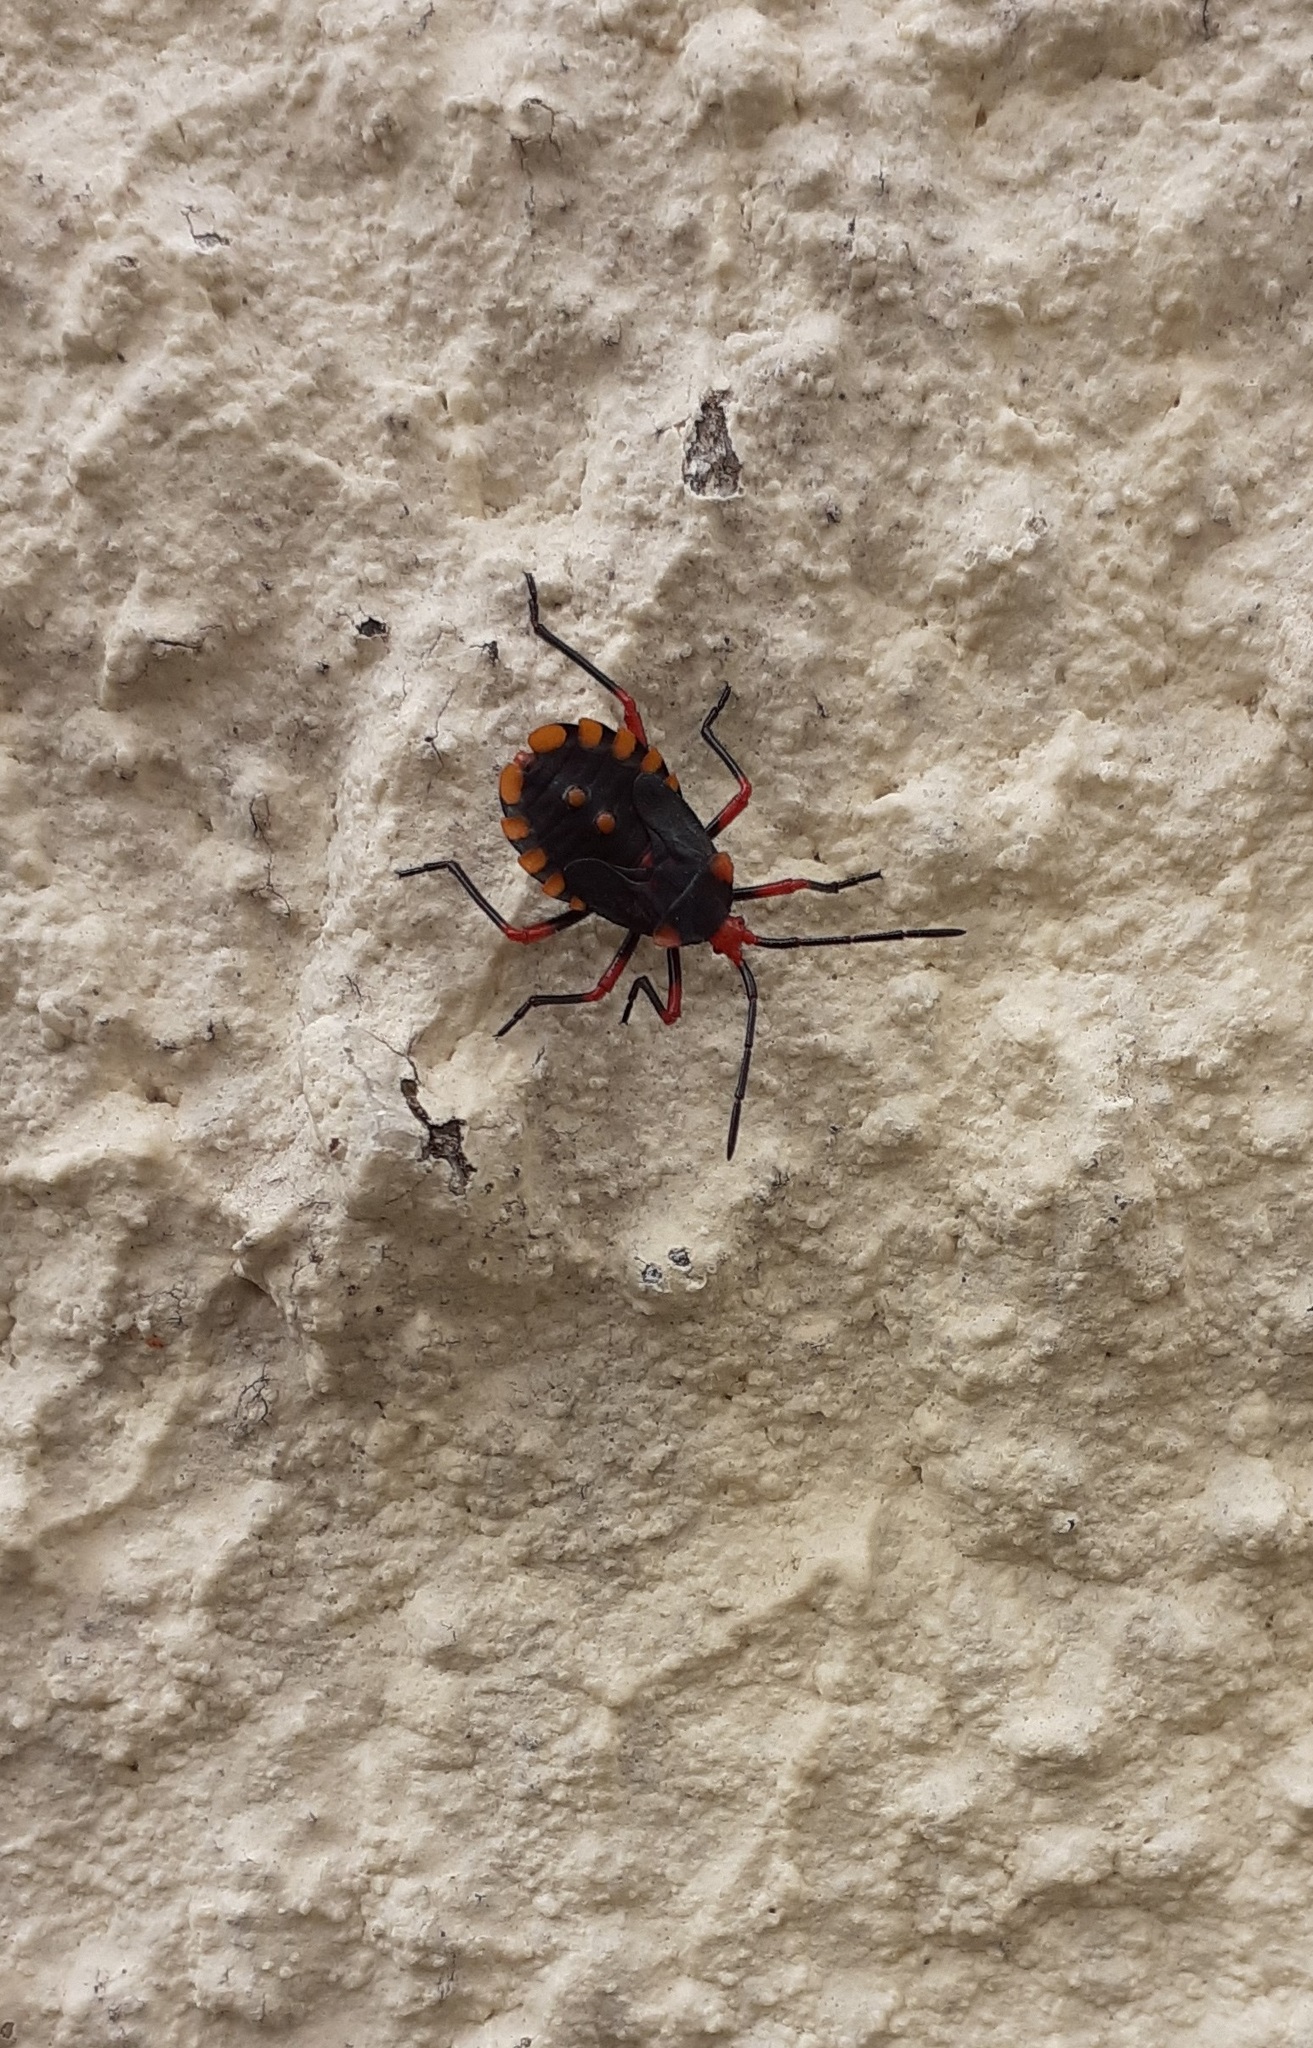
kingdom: Animalia
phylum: Arthropoda
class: Insecta
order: Hemiptera
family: Coreidae
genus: Spartocera
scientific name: Spartocera fusca
